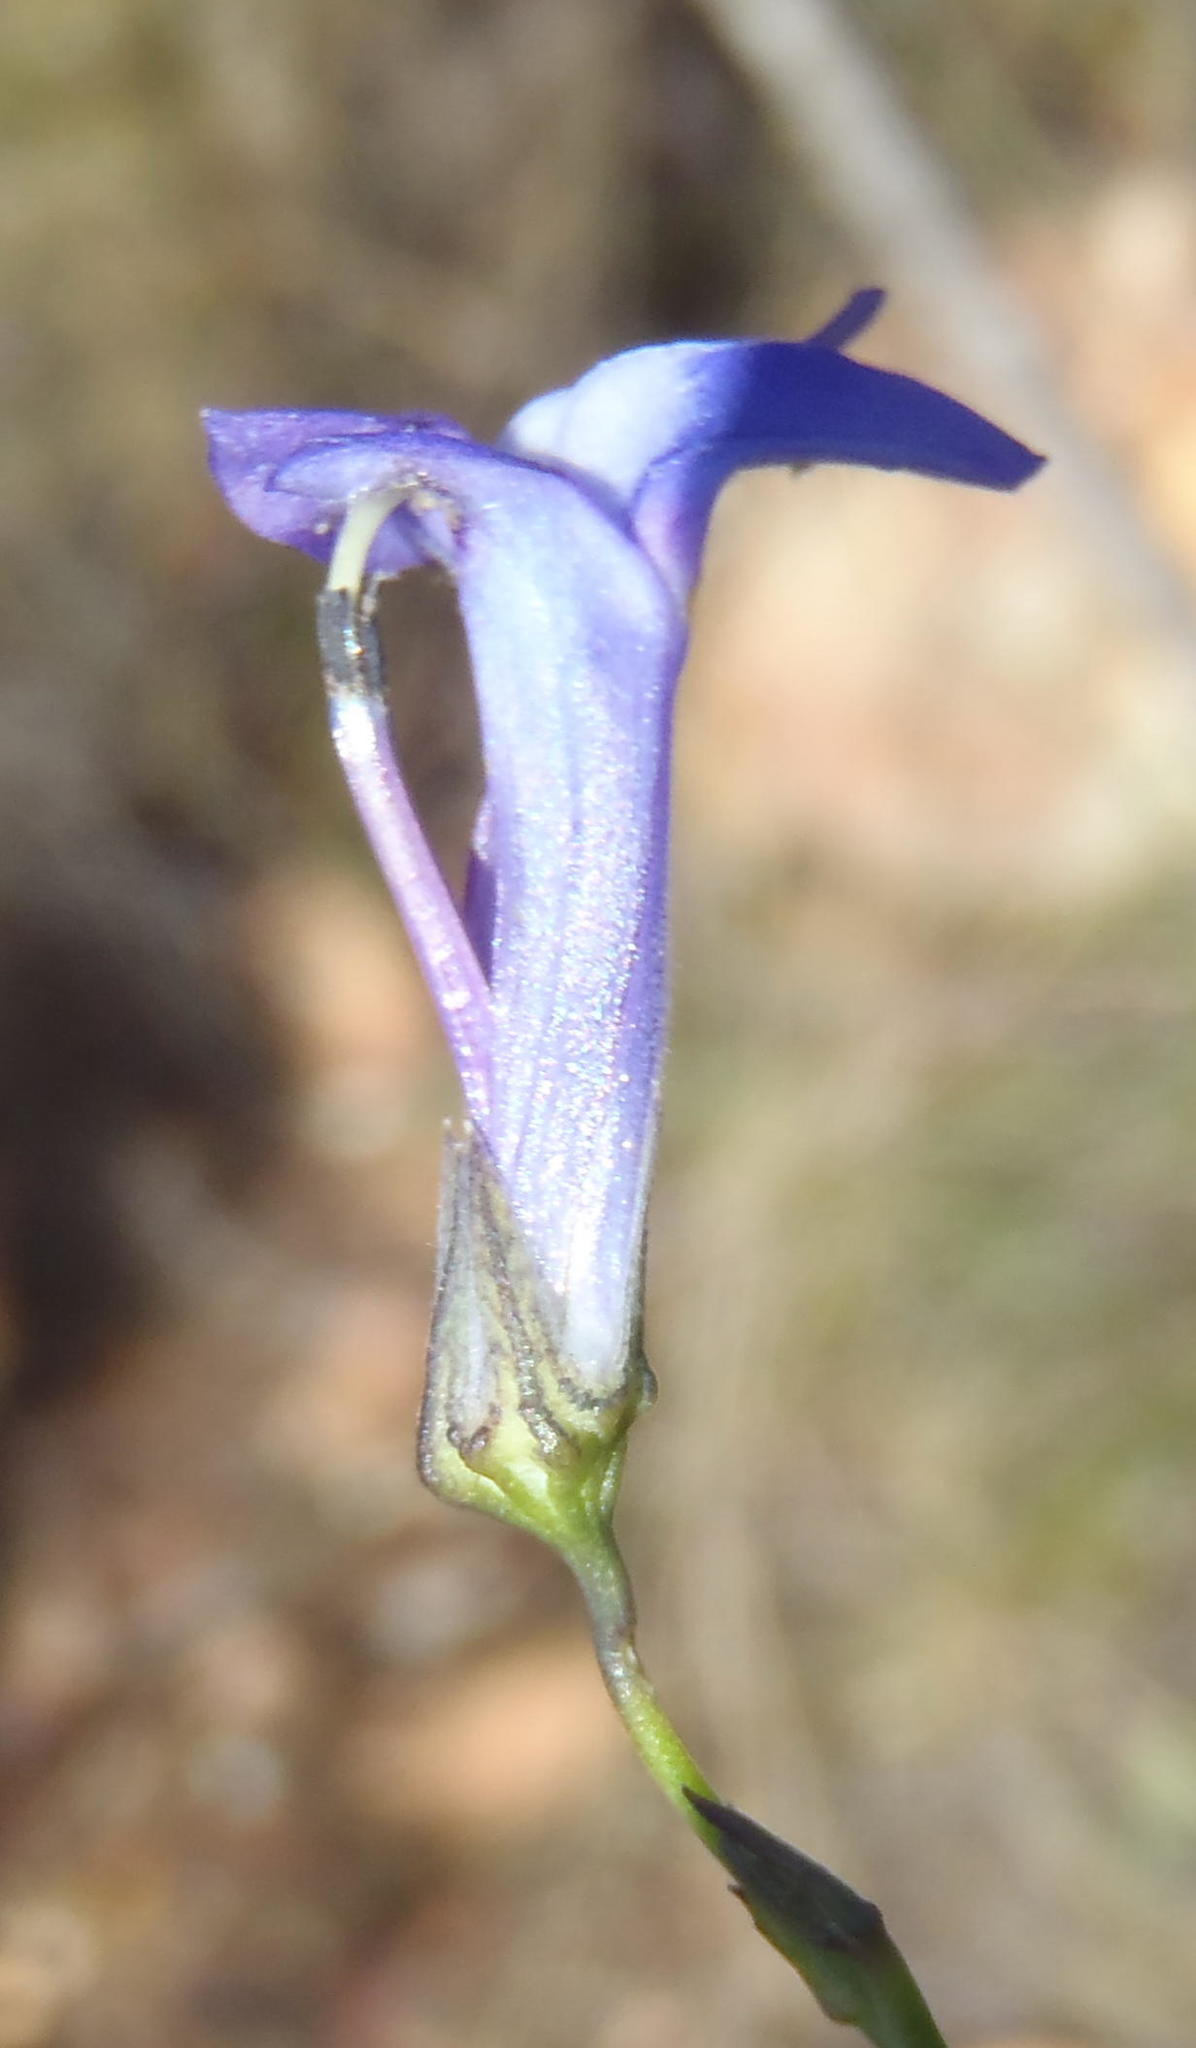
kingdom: Plantae
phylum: Tracheophyta
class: Magnoliopsida
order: Asterales
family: Campanulaceae
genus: Lobelia
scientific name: Lobelia linearis
